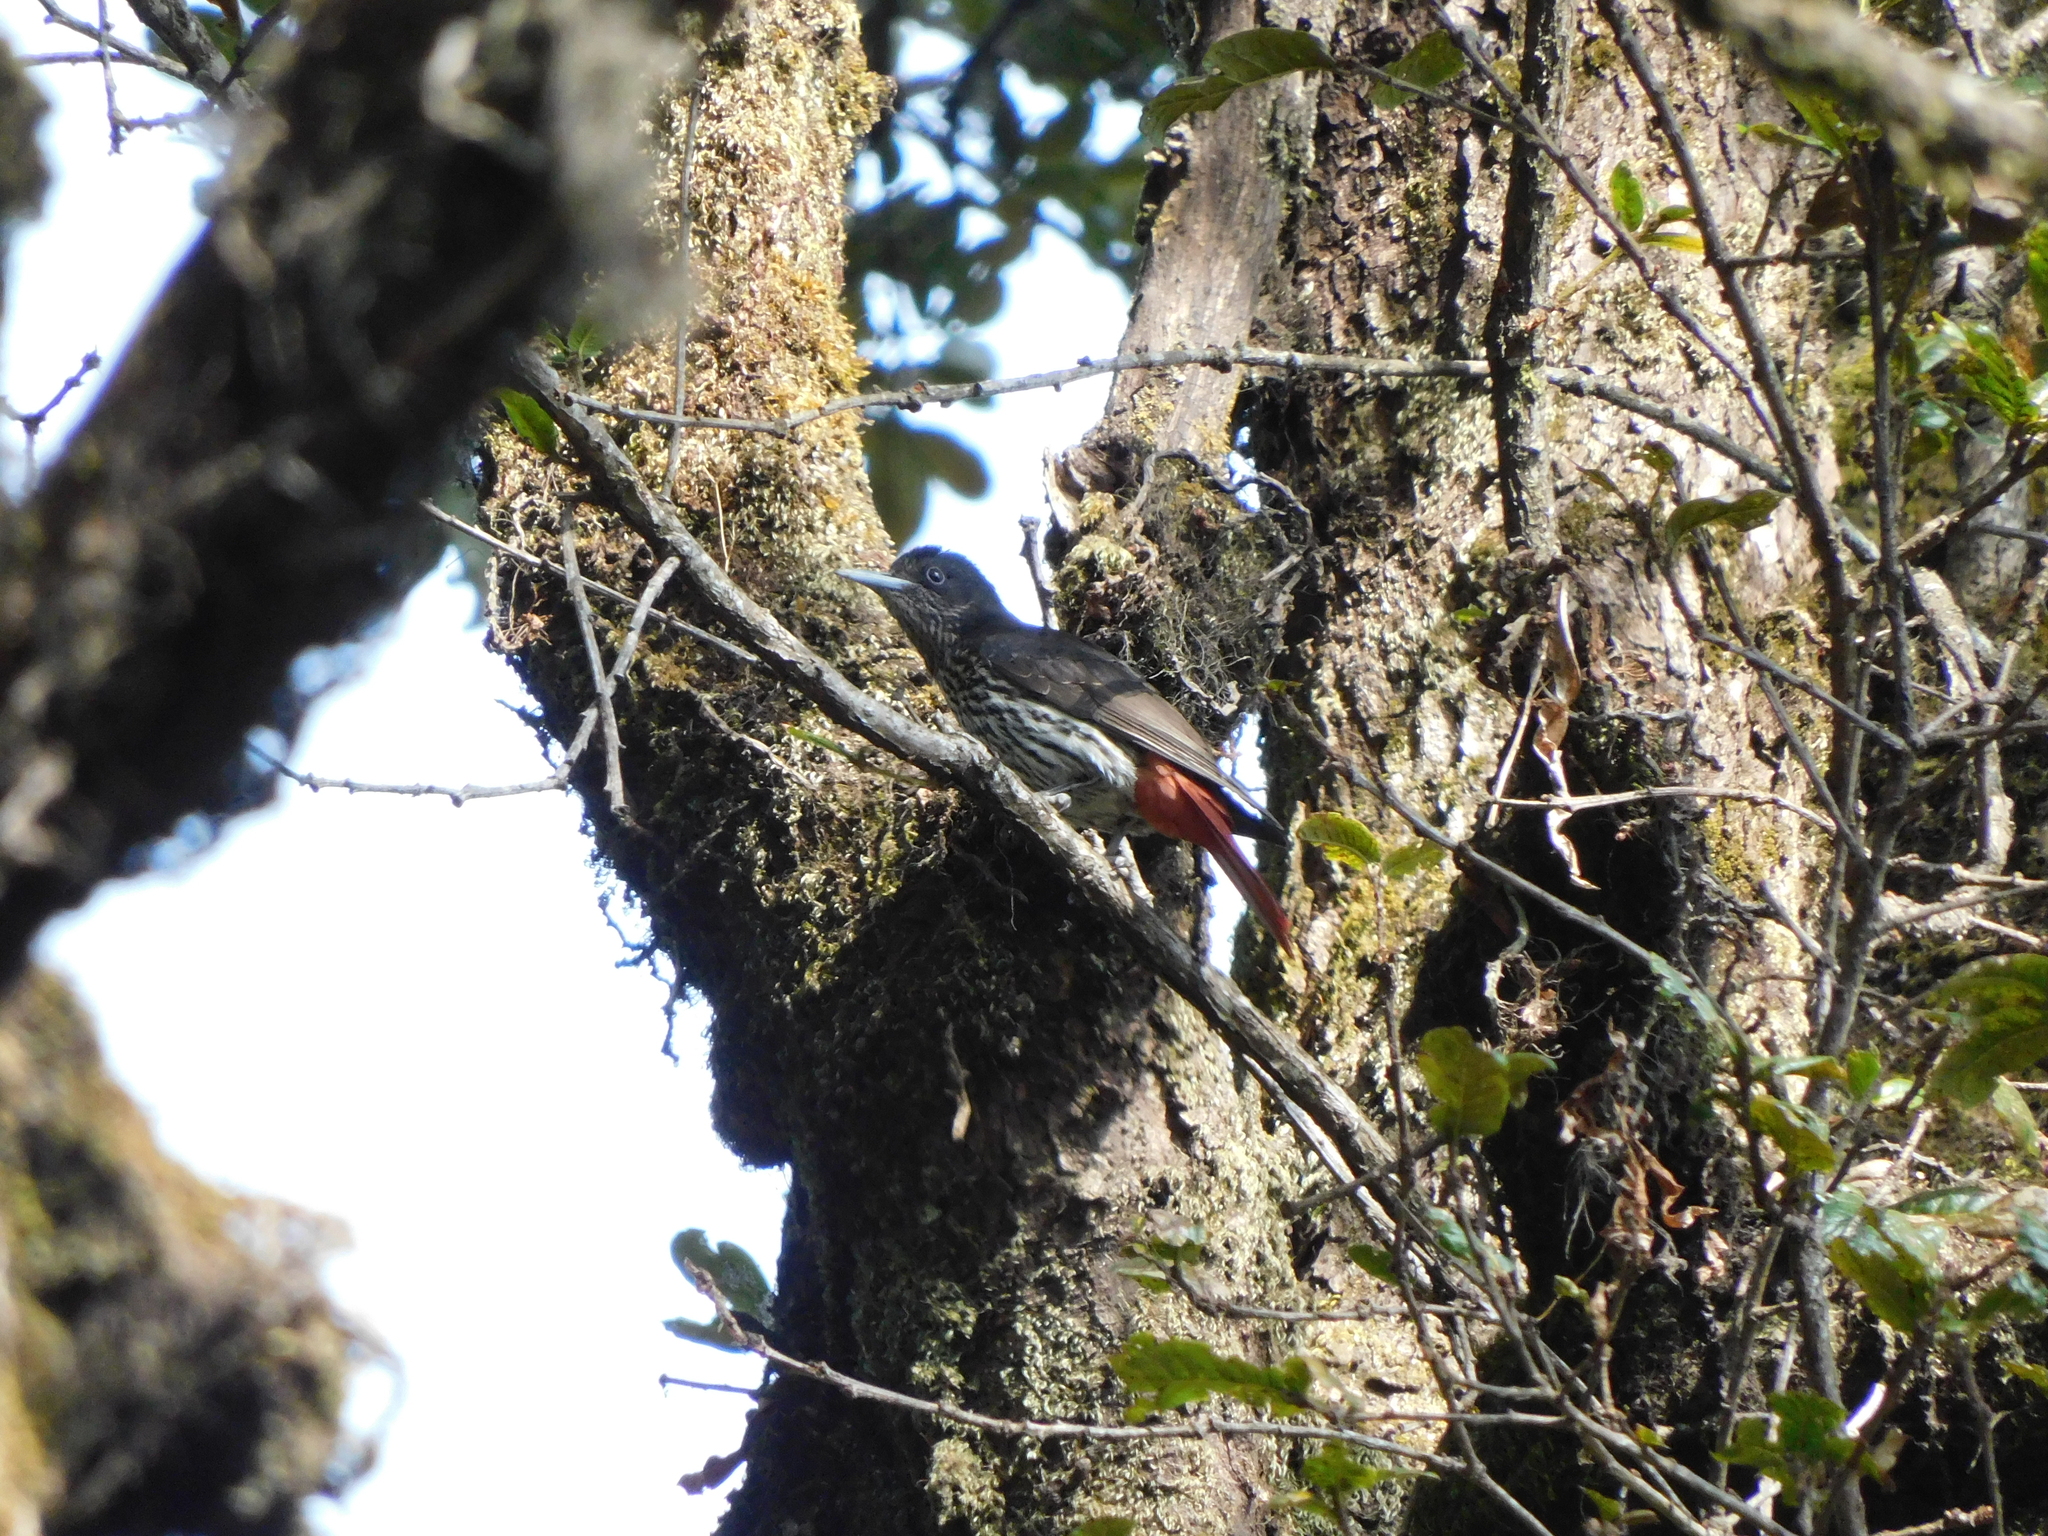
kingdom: Animalia
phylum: Chordata
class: Aves
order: Passeriformes
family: Oriolidae
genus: Oriolus
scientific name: Oriolus traillii
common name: Maroon oriole
